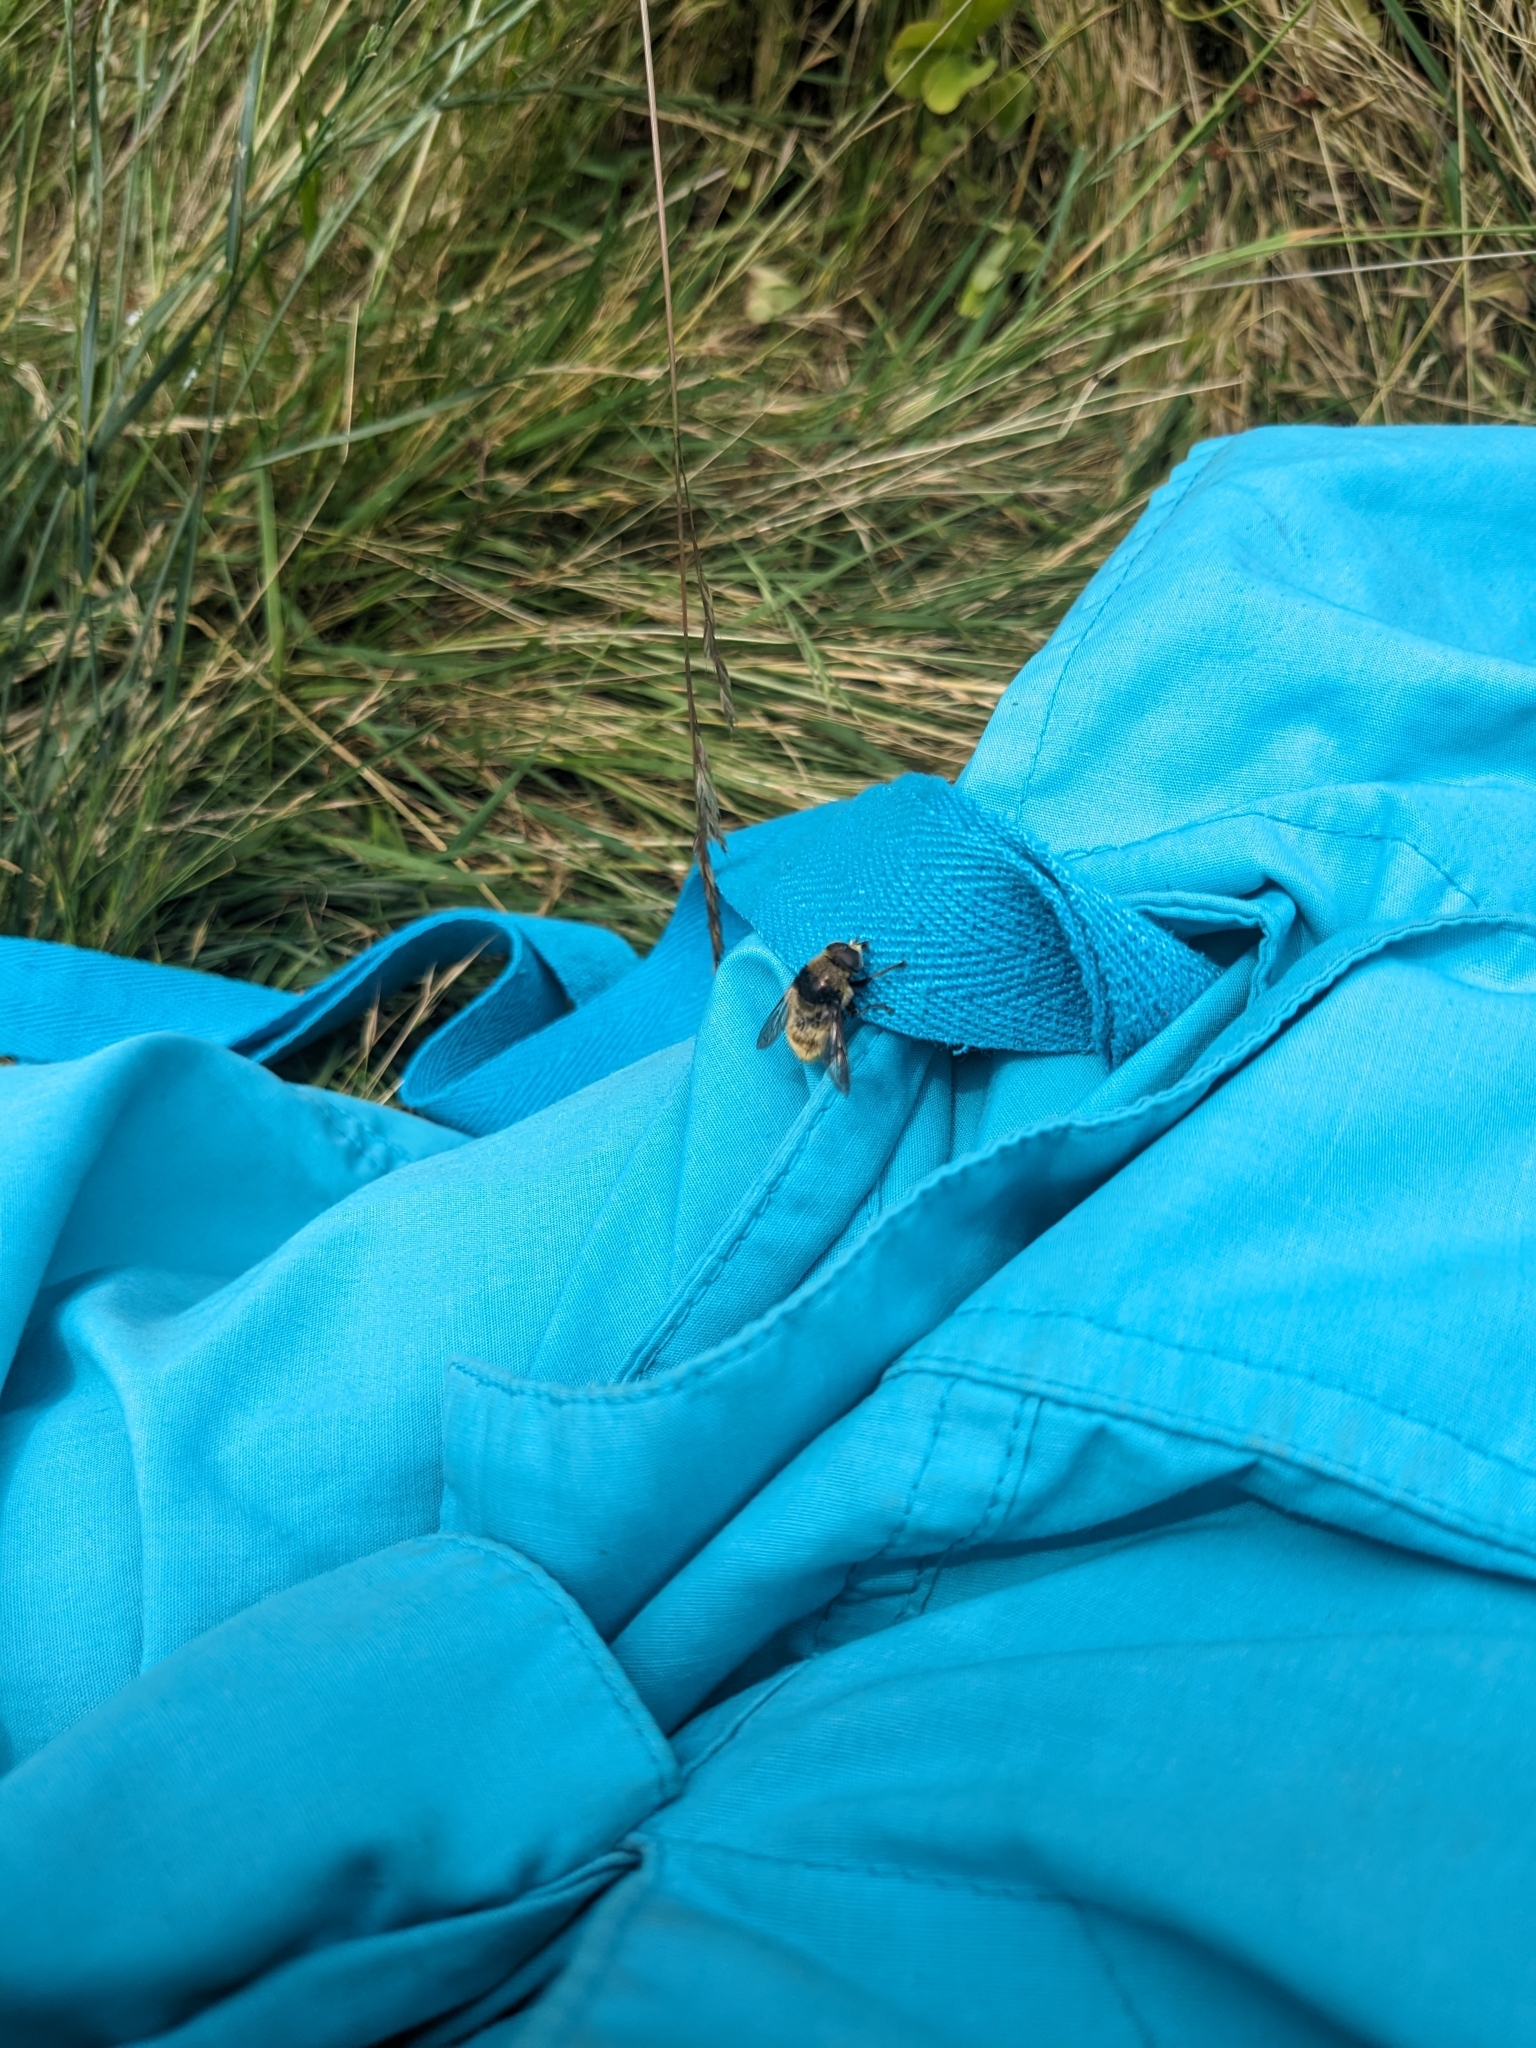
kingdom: Animalia
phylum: Arthropoda
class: Insecta
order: Diptera
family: Syrphidae
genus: Merodon
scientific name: Merodon equestris
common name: Greater bulb-fly
